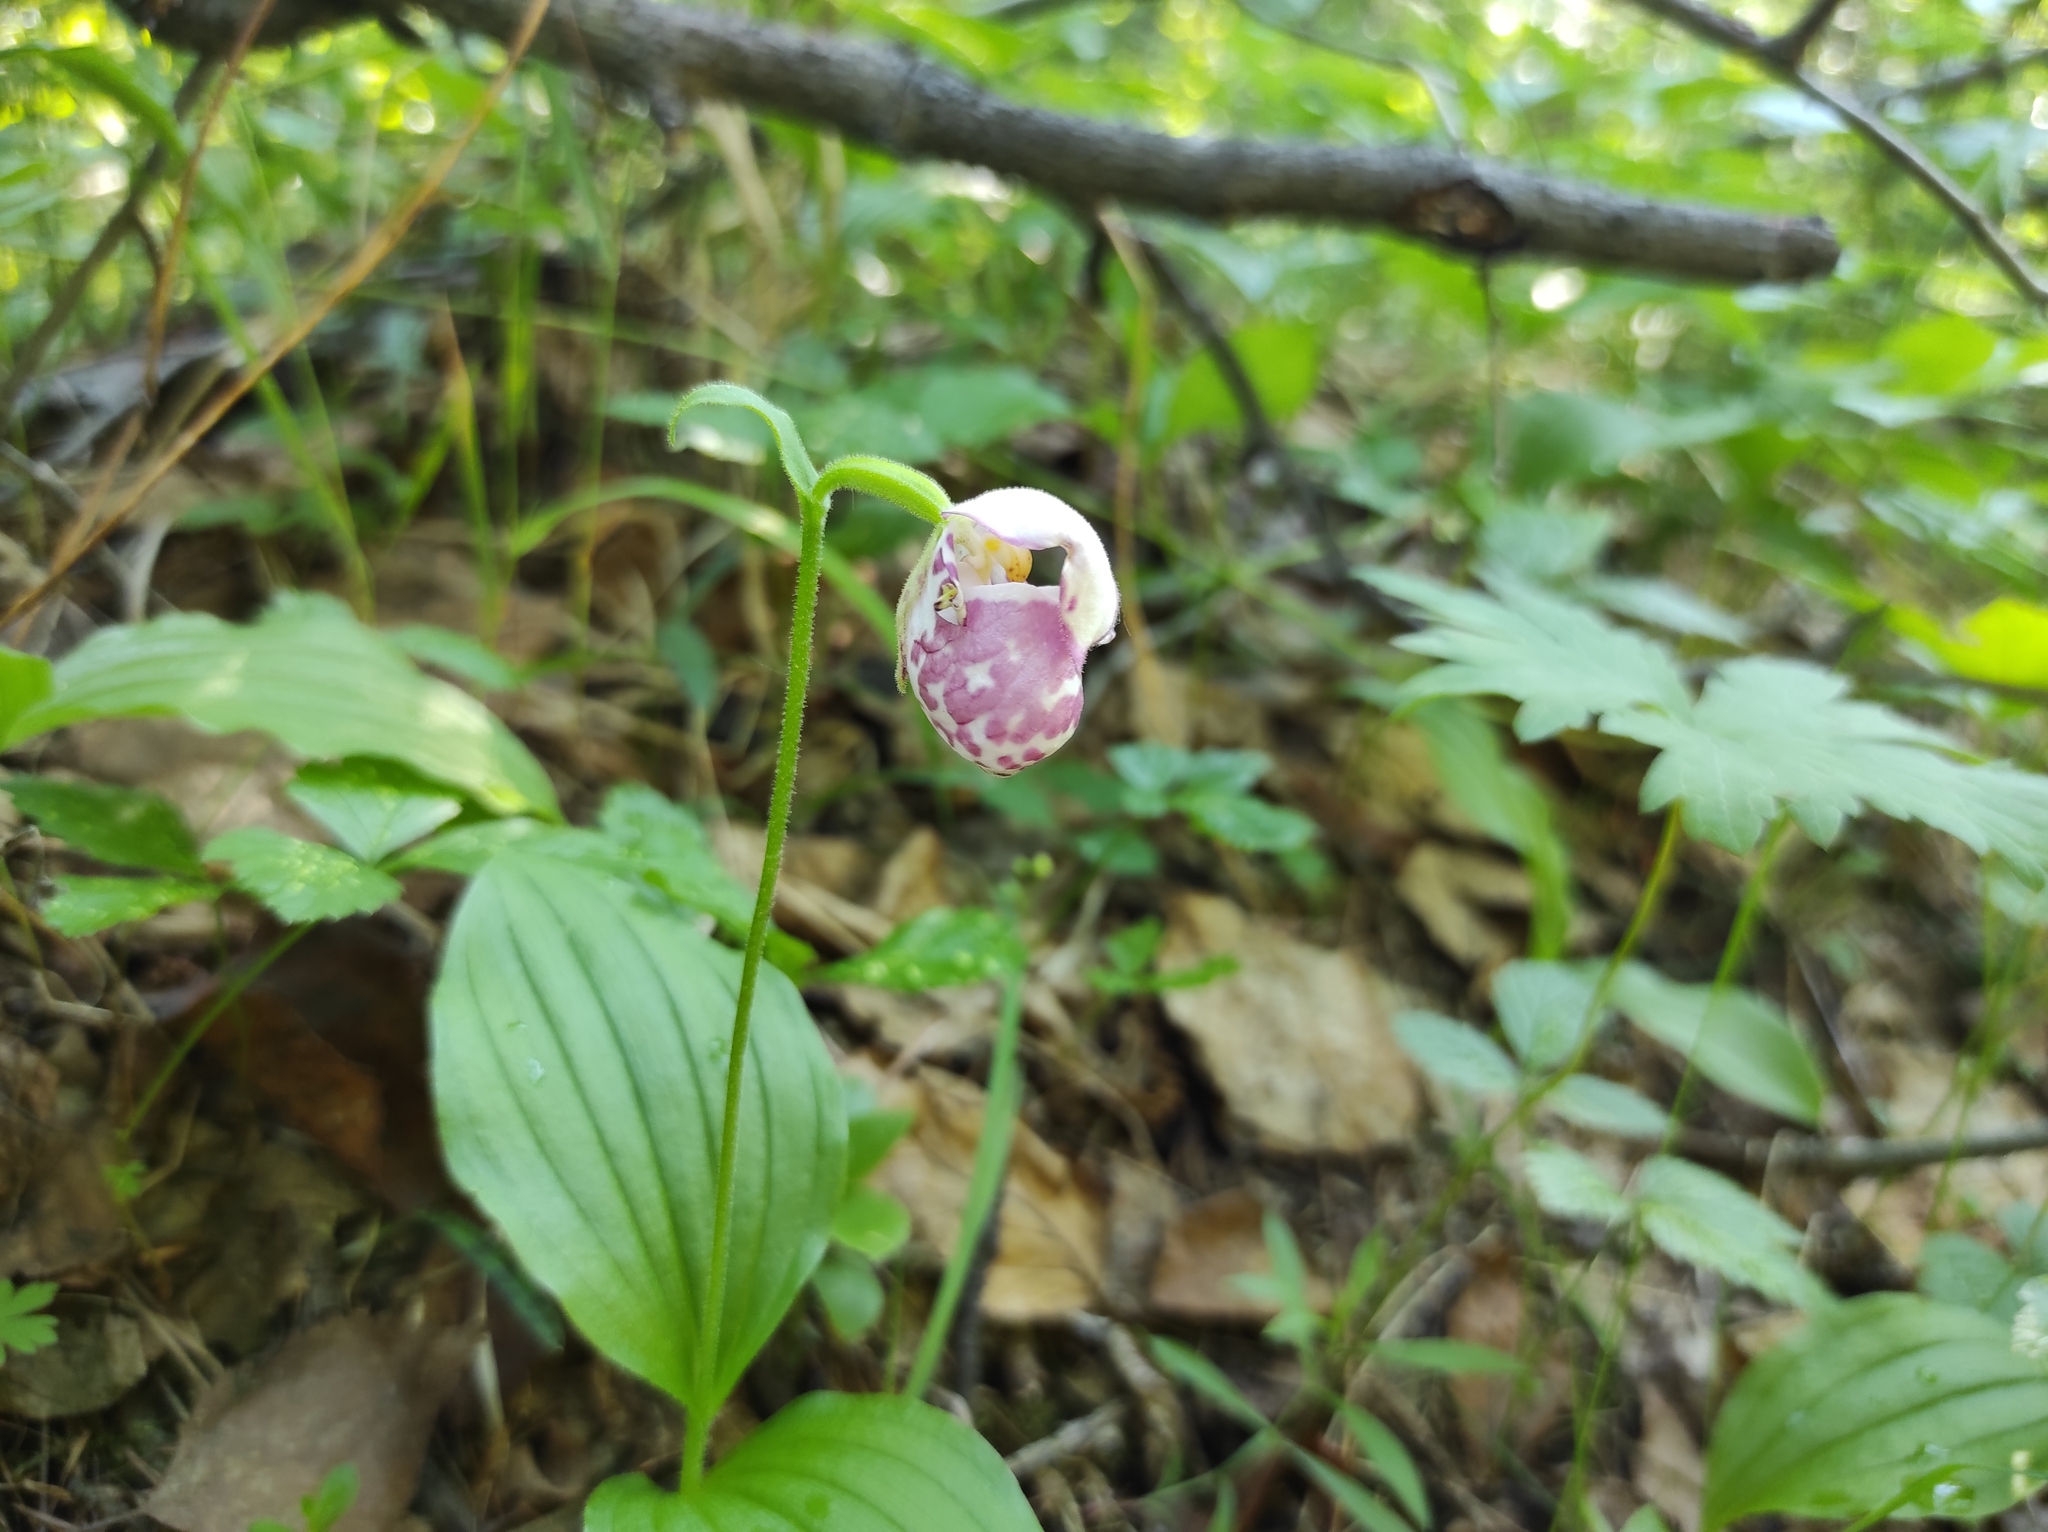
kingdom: Plantae
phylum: Tracheophyta
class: Liliopsida
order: Asparagales
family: Orchidaceae
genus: Cypripedium
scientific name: Cypripedium guttatum
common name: Pink lady slipper
